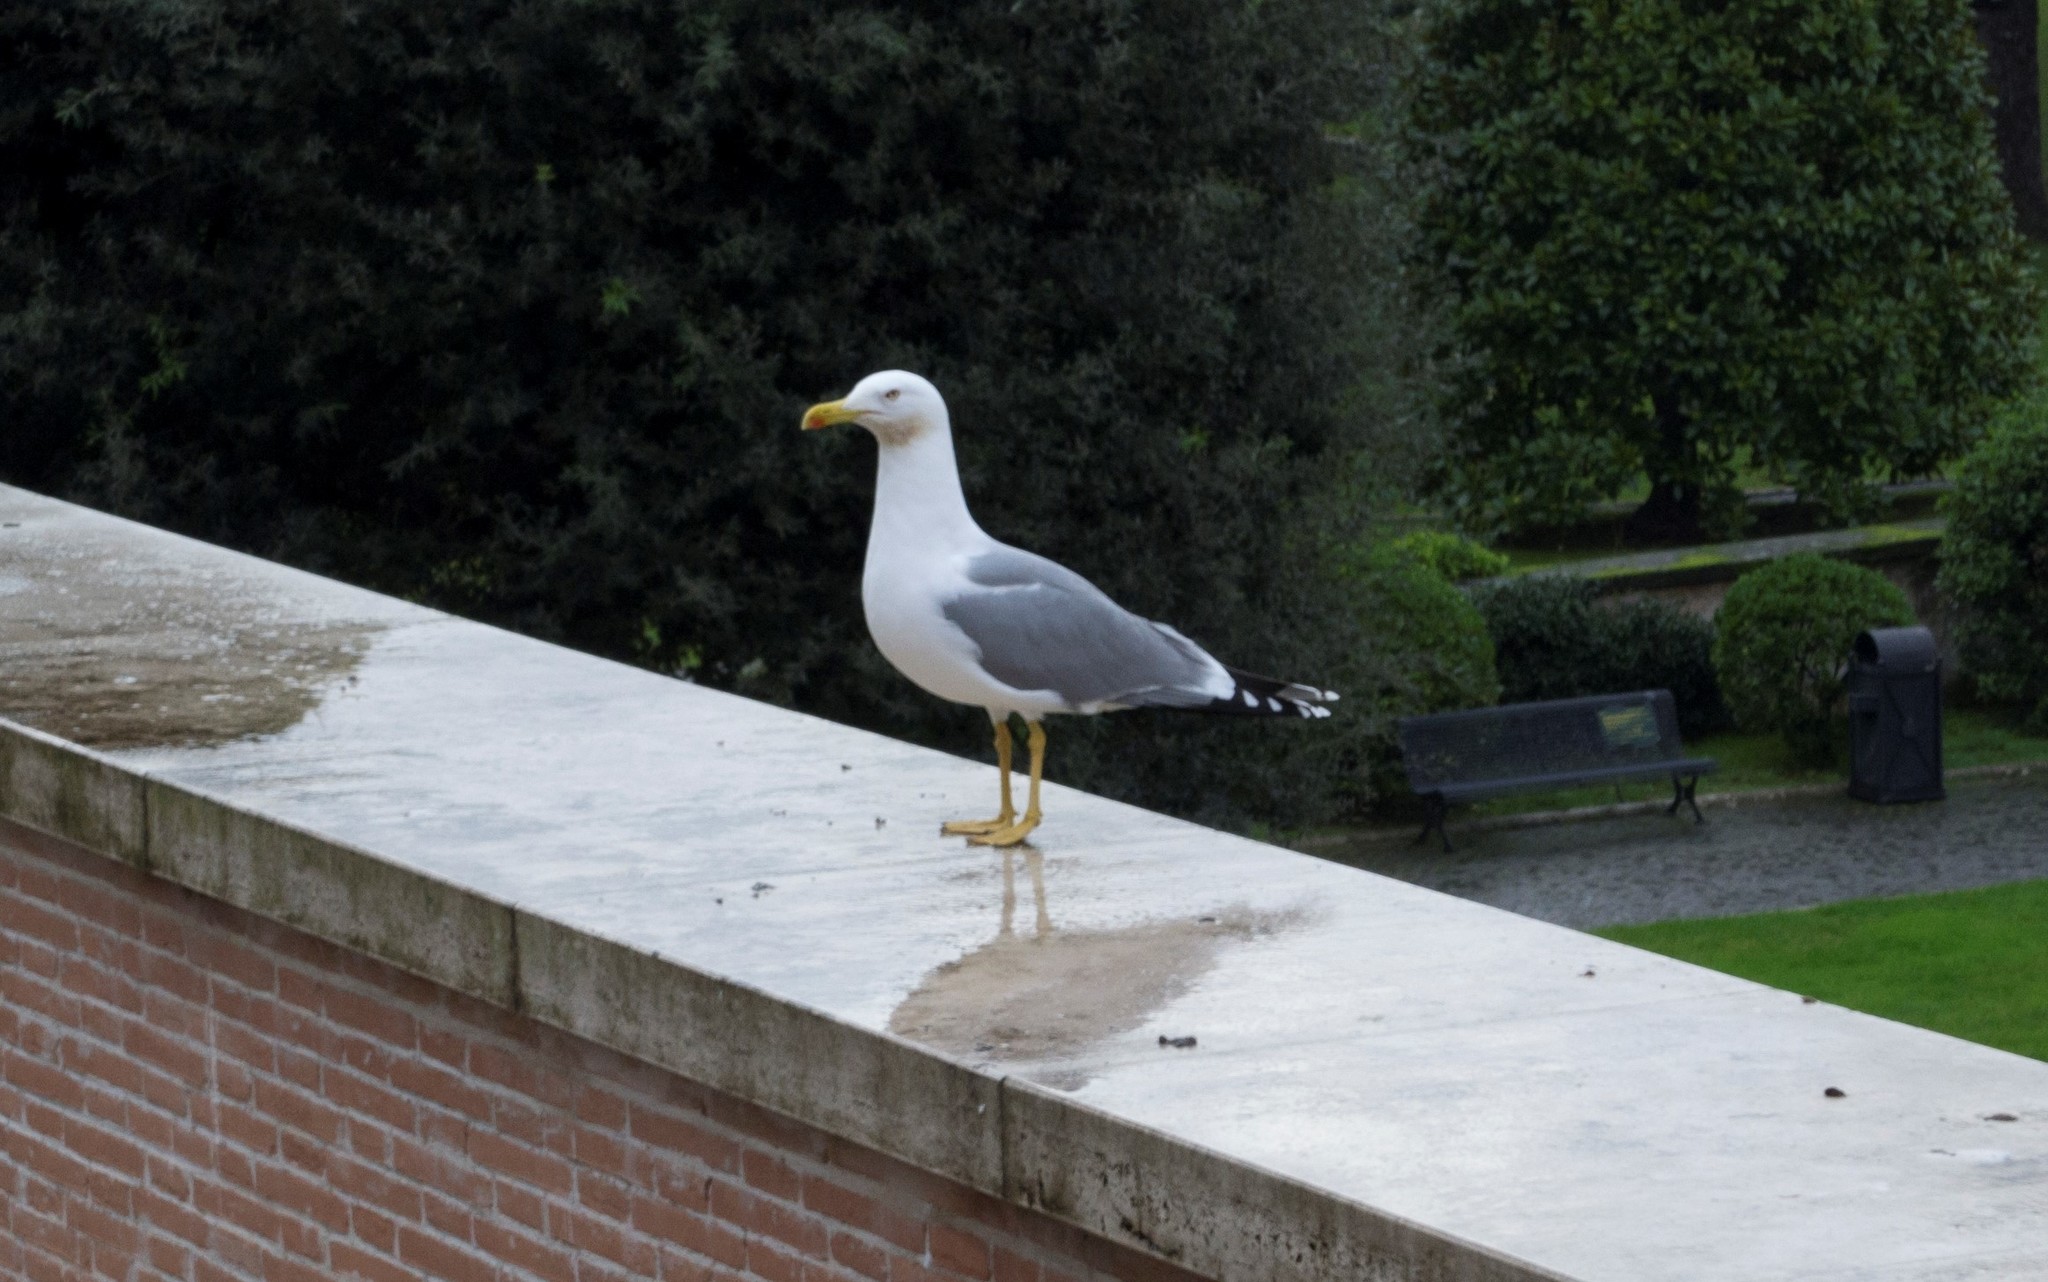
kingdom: Animalia
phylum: Chordata
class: Aves
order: Charadriiformes
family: Laridae
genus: Larus
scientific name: Larus michahellis
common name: Yellow-legged gull
